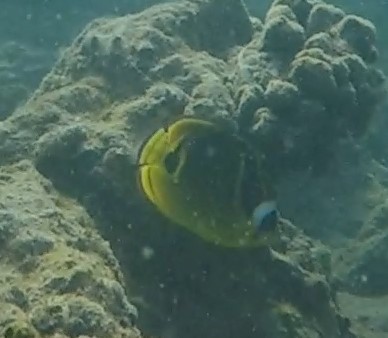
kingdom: Animalia
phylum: Chordata
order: Perciformes
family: Chaetodontidae
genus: Chaetodon
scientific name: Chaetodon lunula
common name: Raccoon butterflyfish
